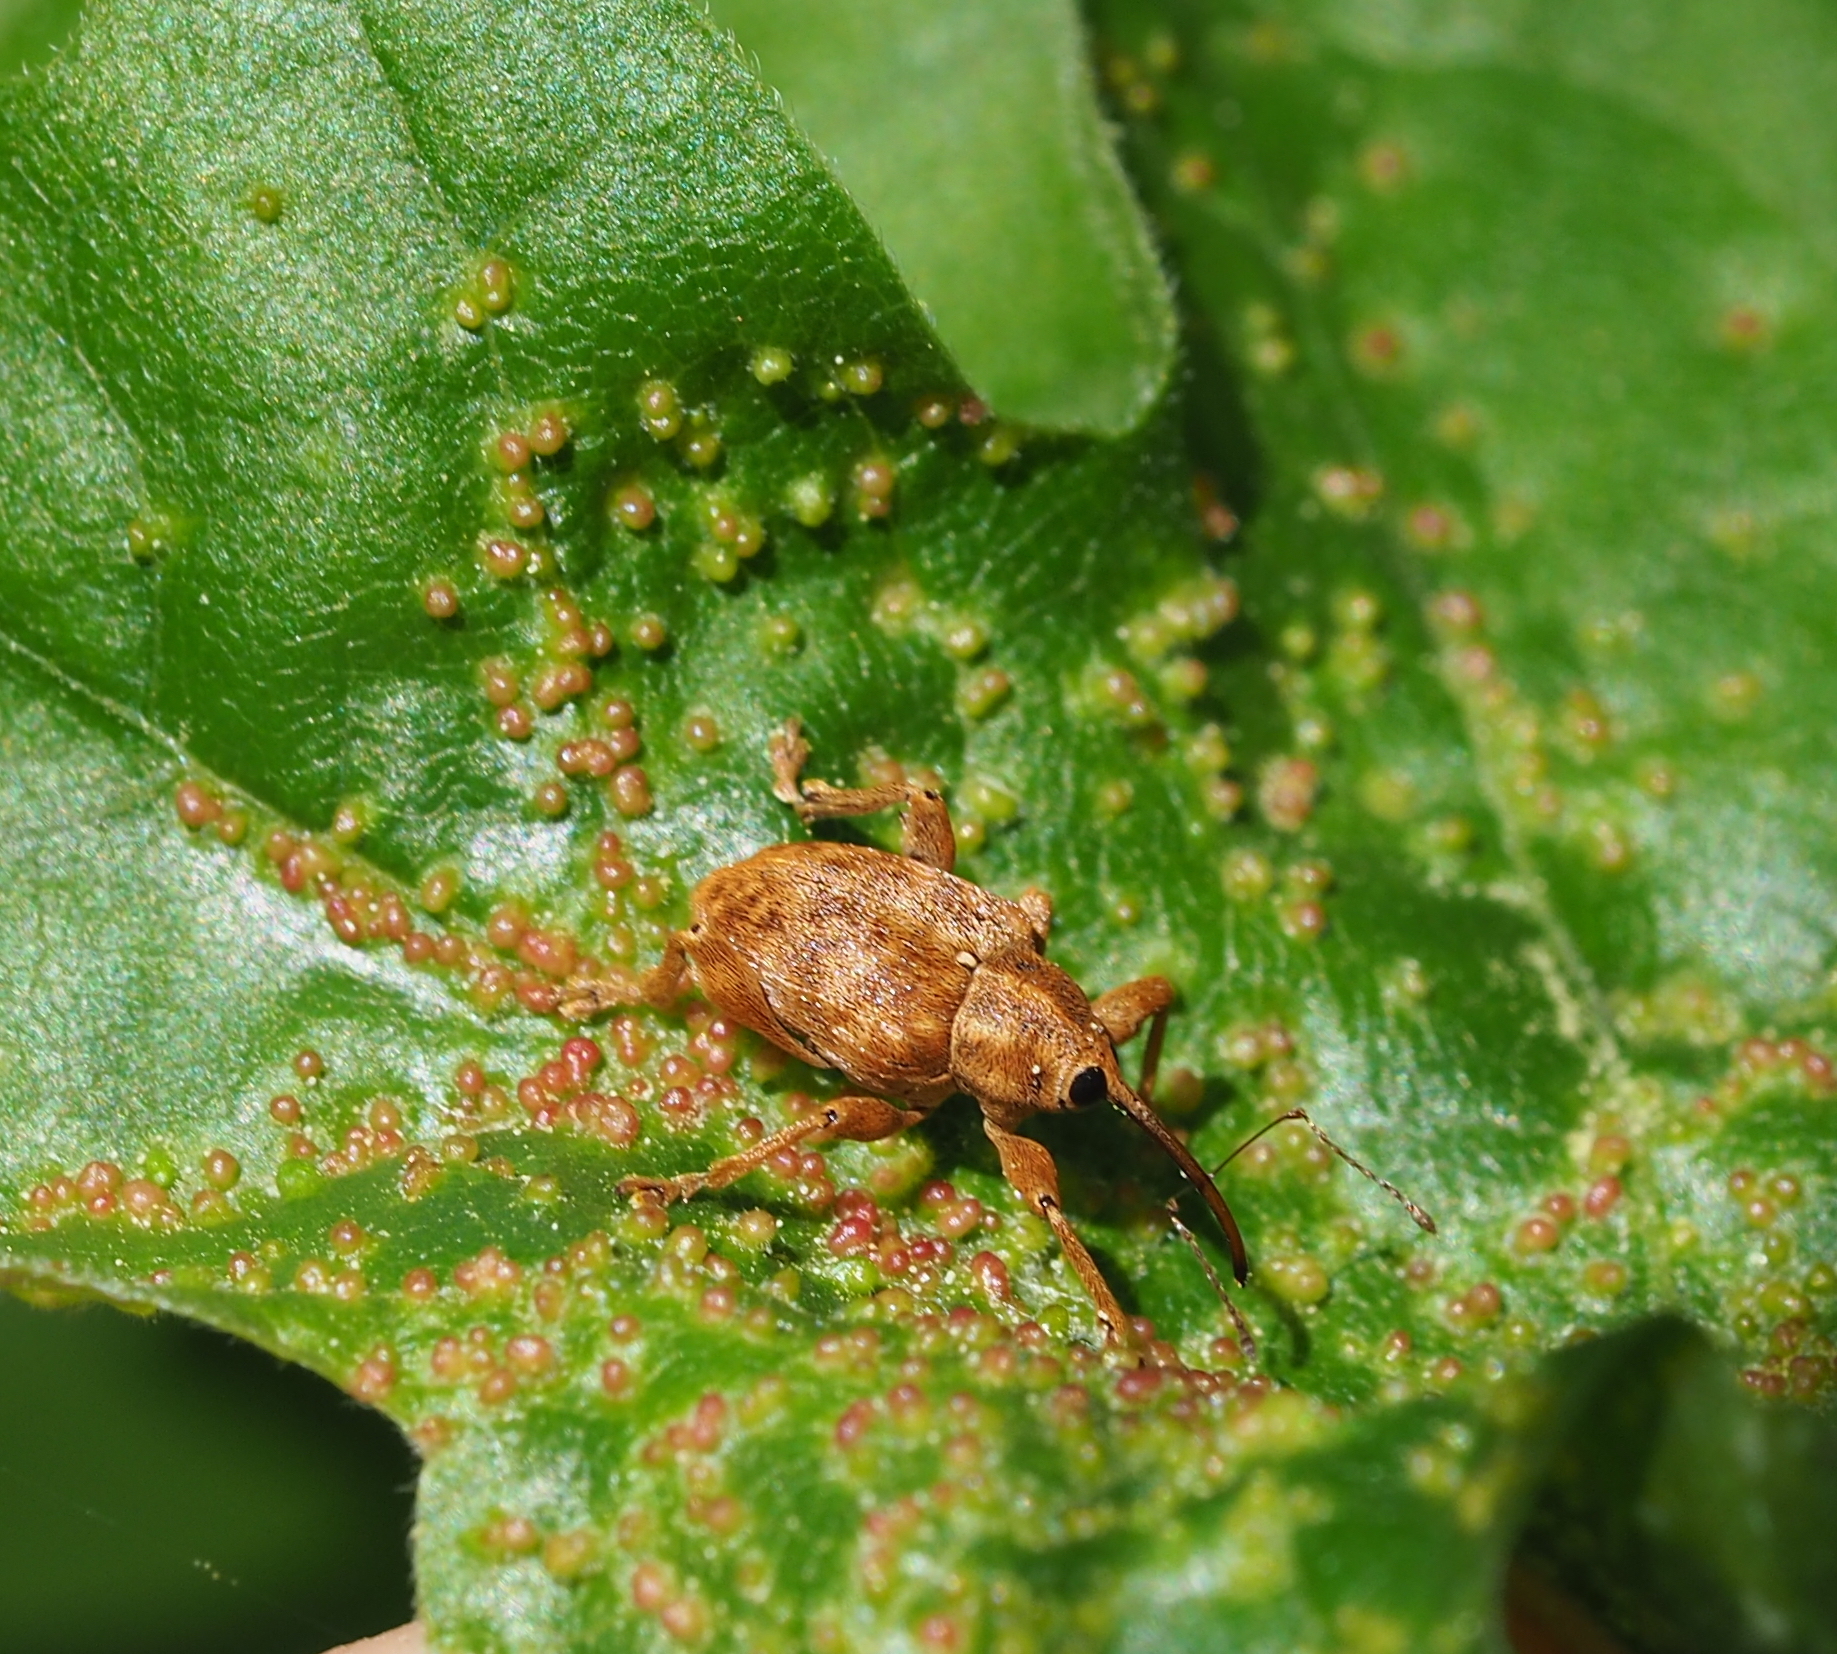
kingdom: Animalia
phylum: Arthropoda
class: Insecta
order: Coleoptera
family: Curculionidae
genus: Curculio
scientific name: Curculio pellitus
